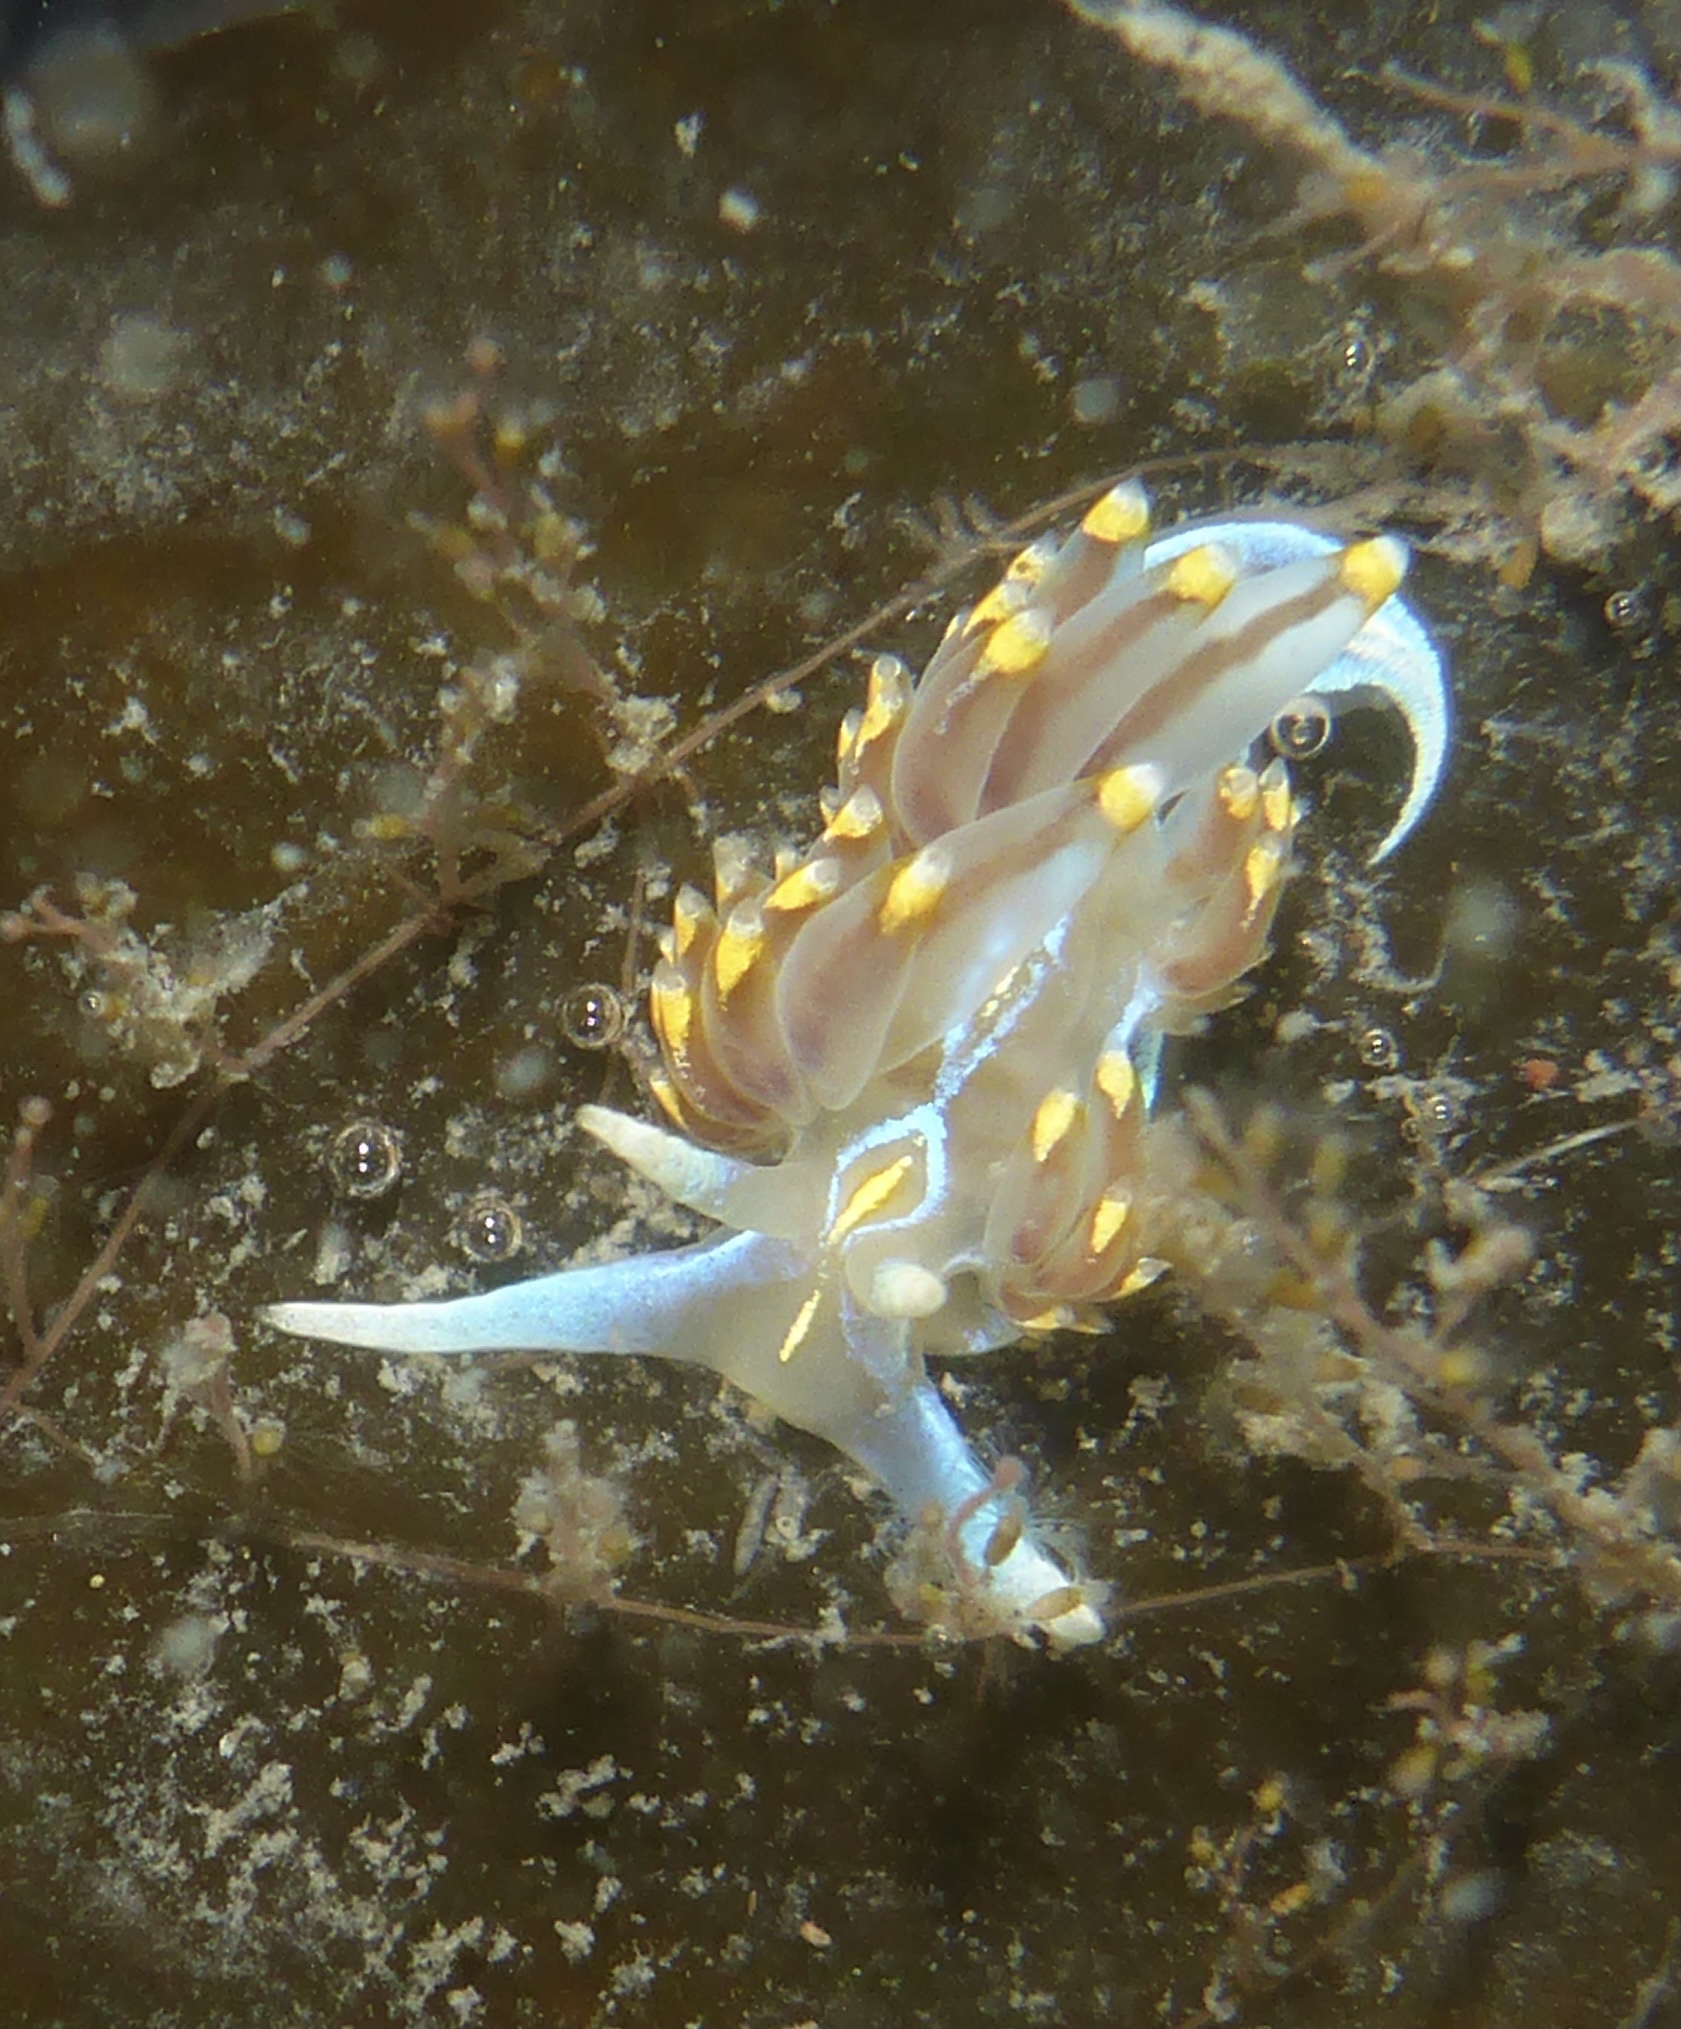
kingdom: Animalia
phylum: Mollusca
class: Gastropoda
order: Nudibranchia
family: Myrrhinidae
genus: Hermissenda
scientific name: Hermissenda opalescens
